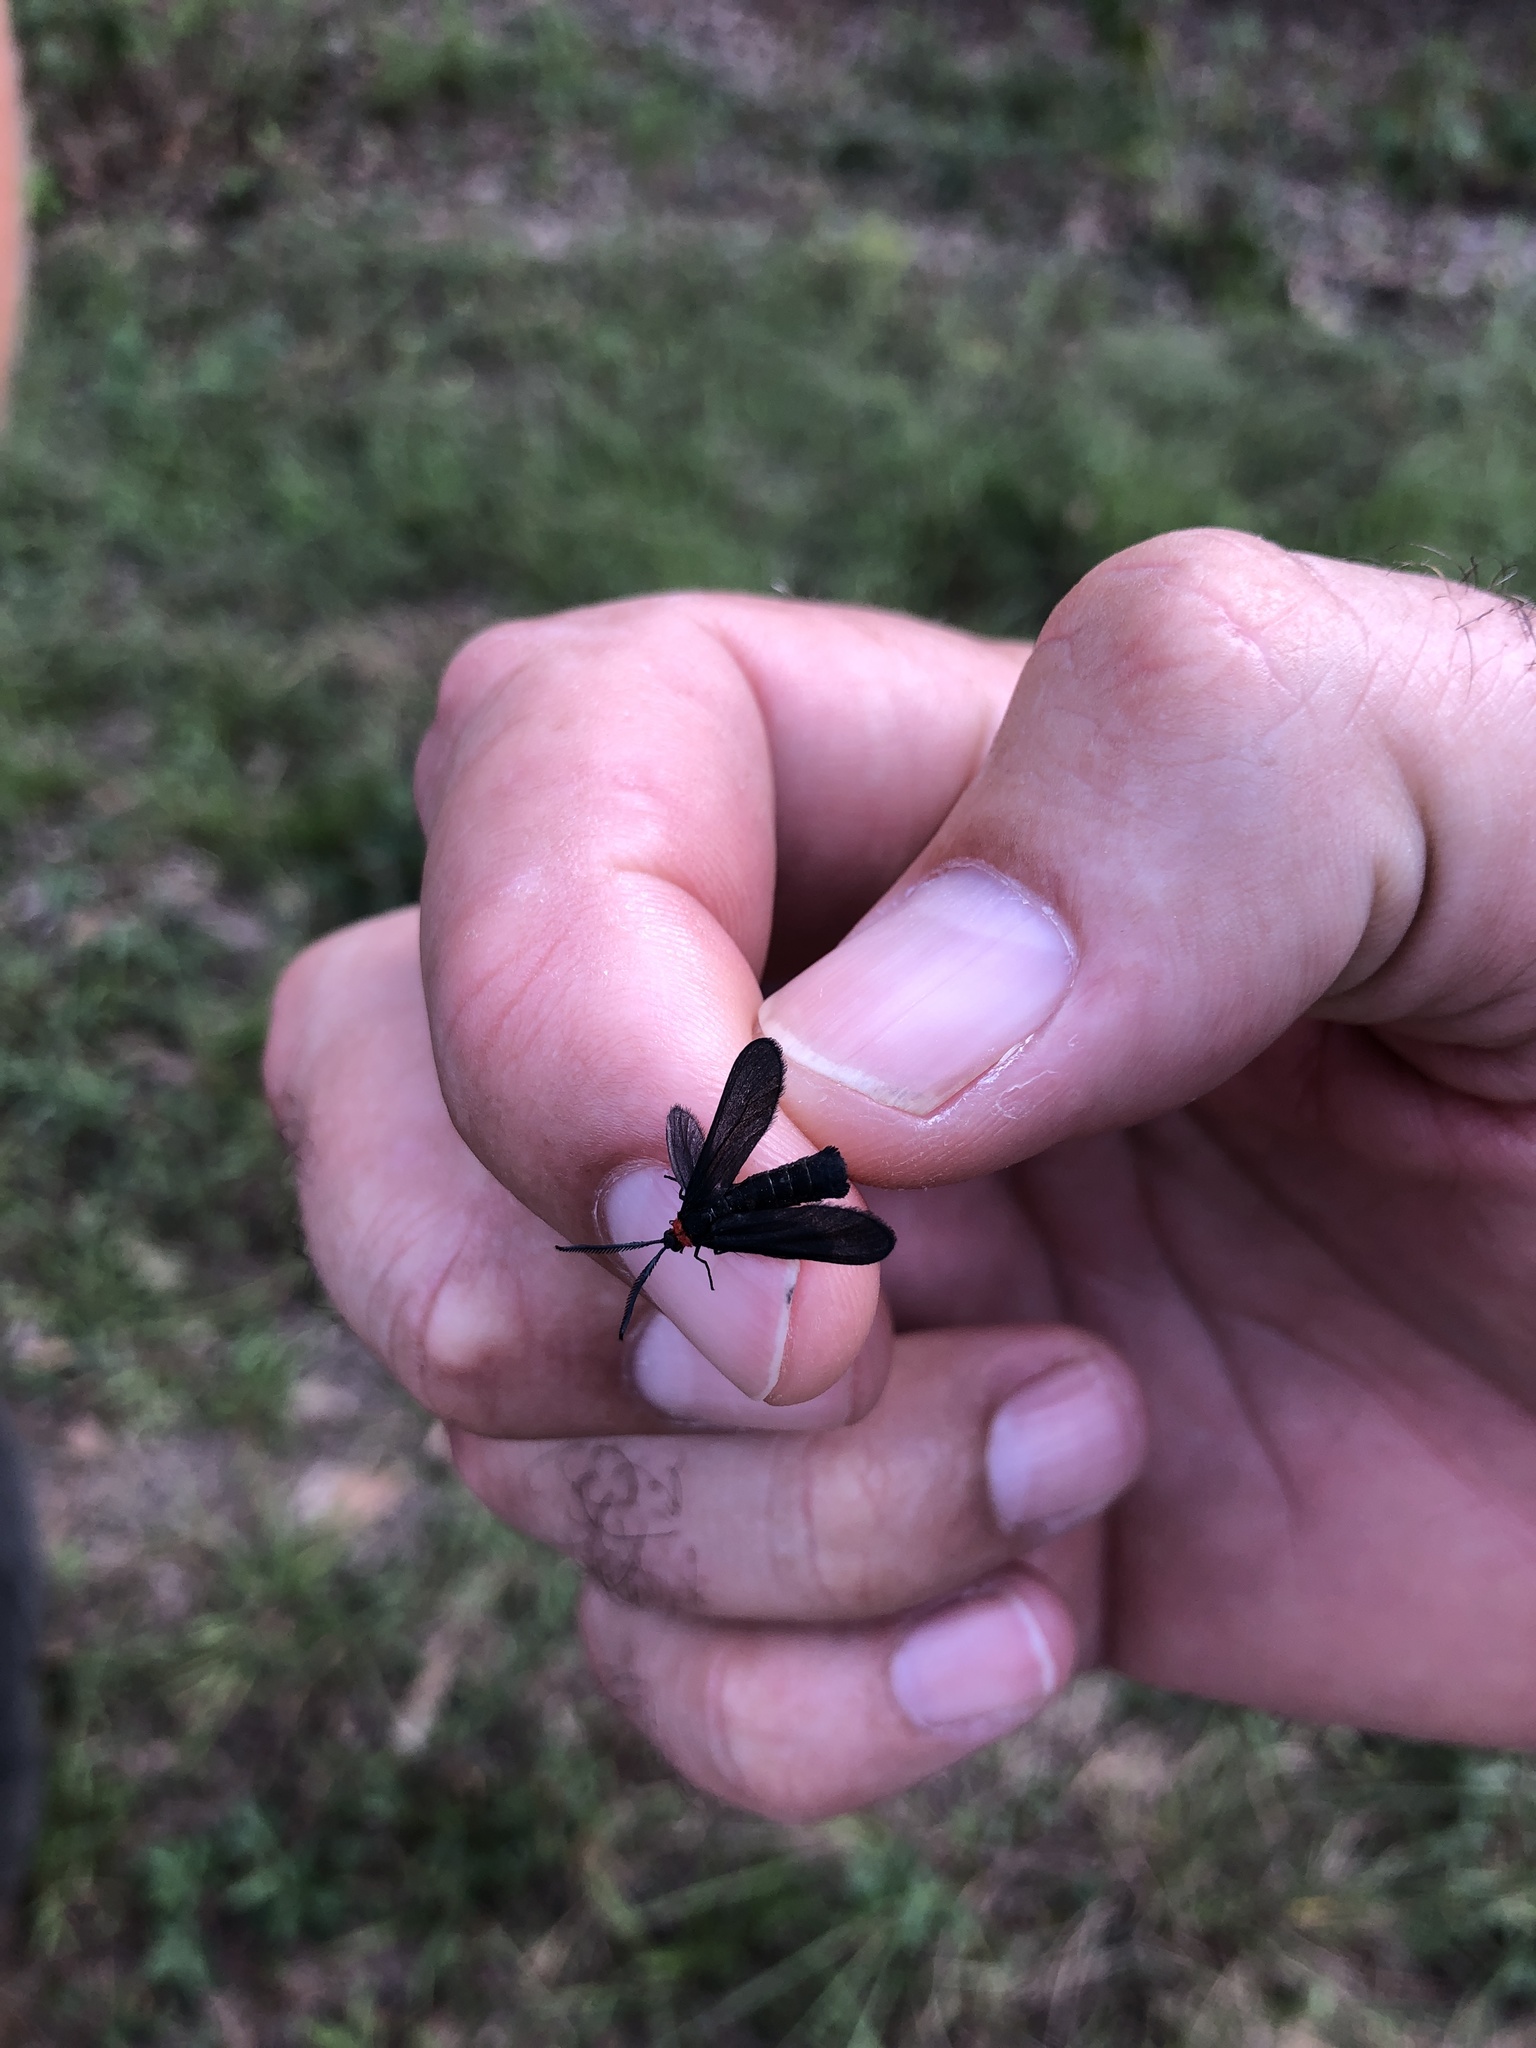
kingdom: Animalia
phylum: Arthropoda
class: Insecta
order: Lepidoptera
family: Zygaenidae
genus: Harrisina
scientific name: Harrisina americana
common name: Grapeleaf skeletonizer moth
